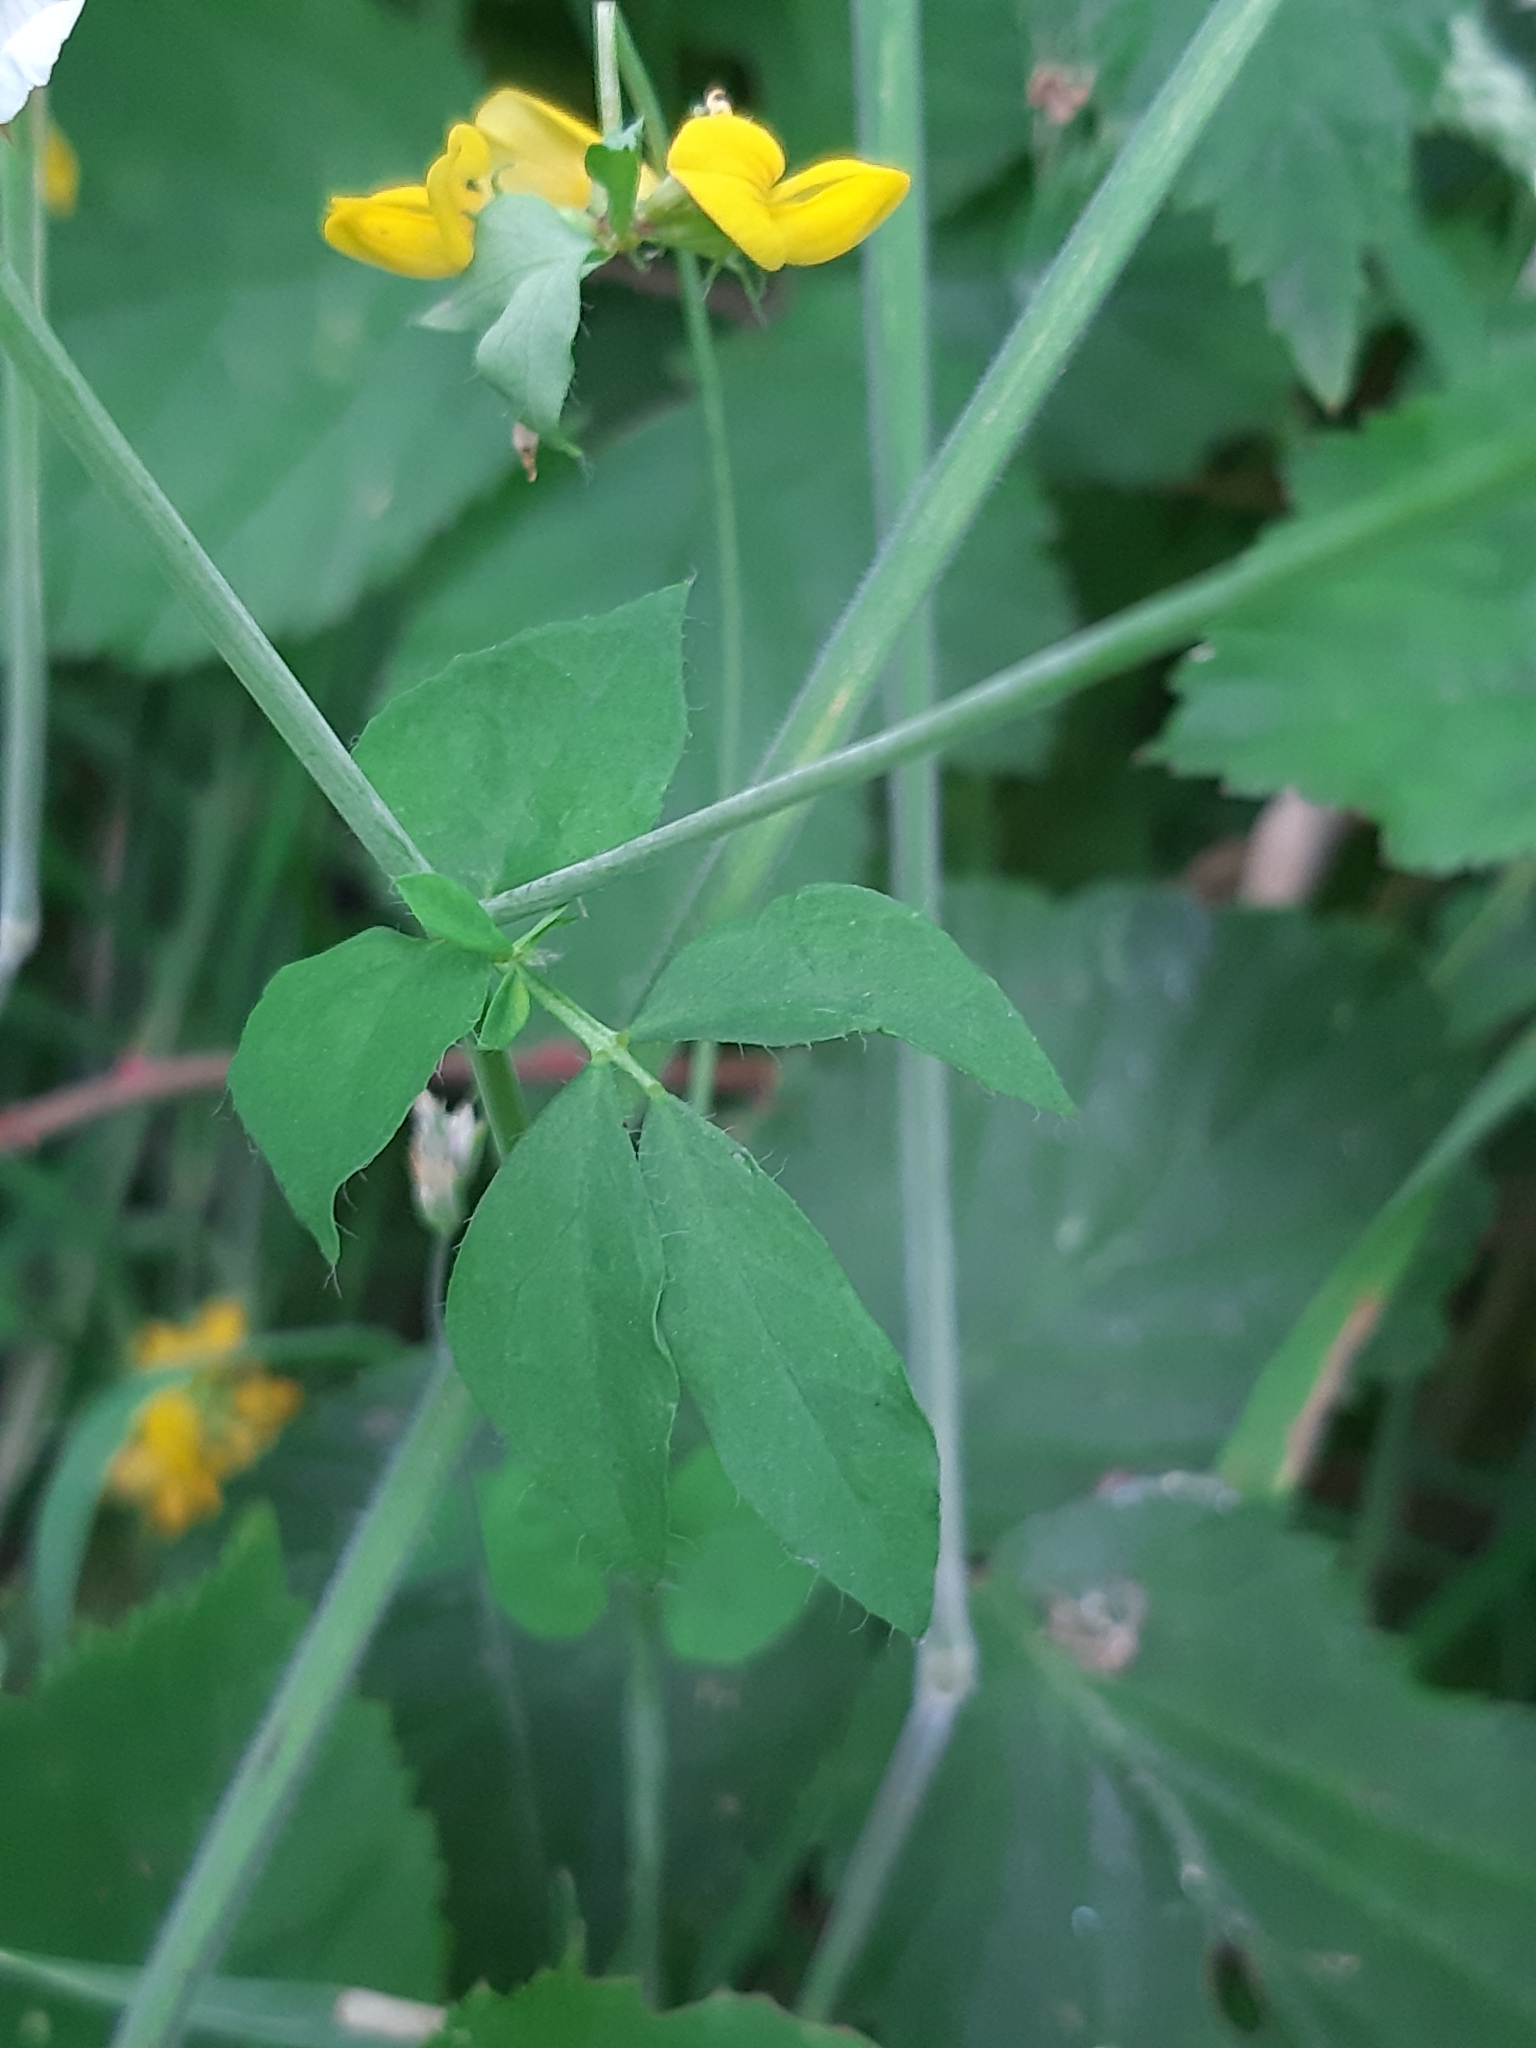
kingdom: Plantae
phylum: Tracheophyta
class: Magnoliopsida
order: Fabales
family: Fabaceae
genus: Lotus
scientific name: Lotus pedunculatus
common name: Greater birdsfoot-trefoil
